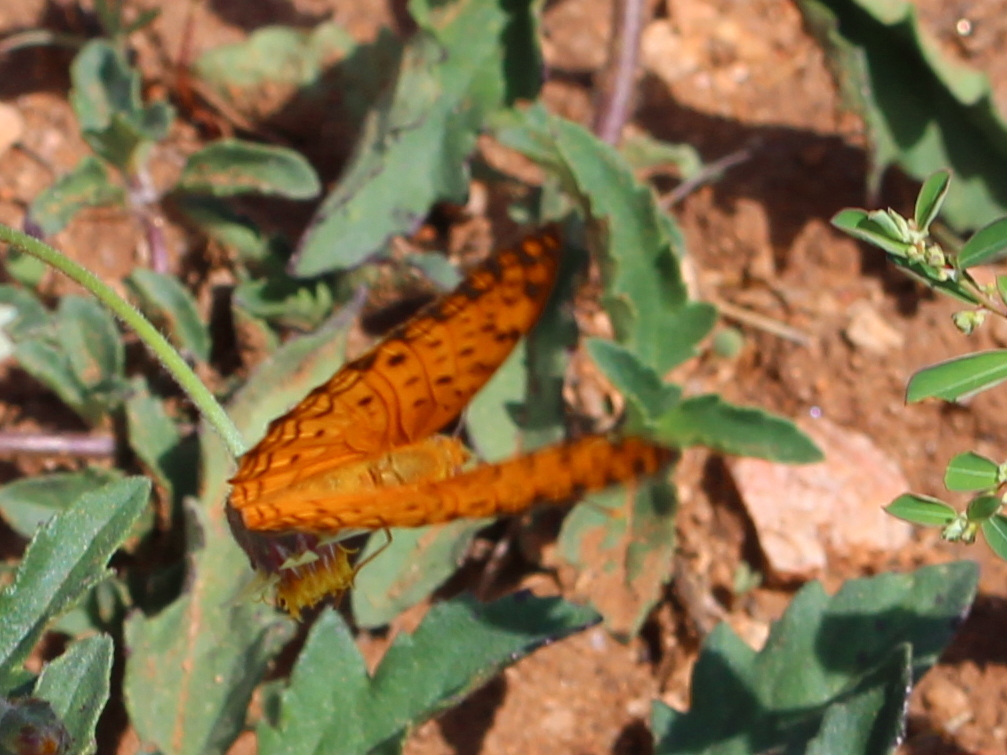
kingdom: Animalia
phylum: Arthropoda
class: Insecta
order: Lepidoptera
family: Nymphalidae
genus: Phalanta
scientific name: Phalanta phalantha
